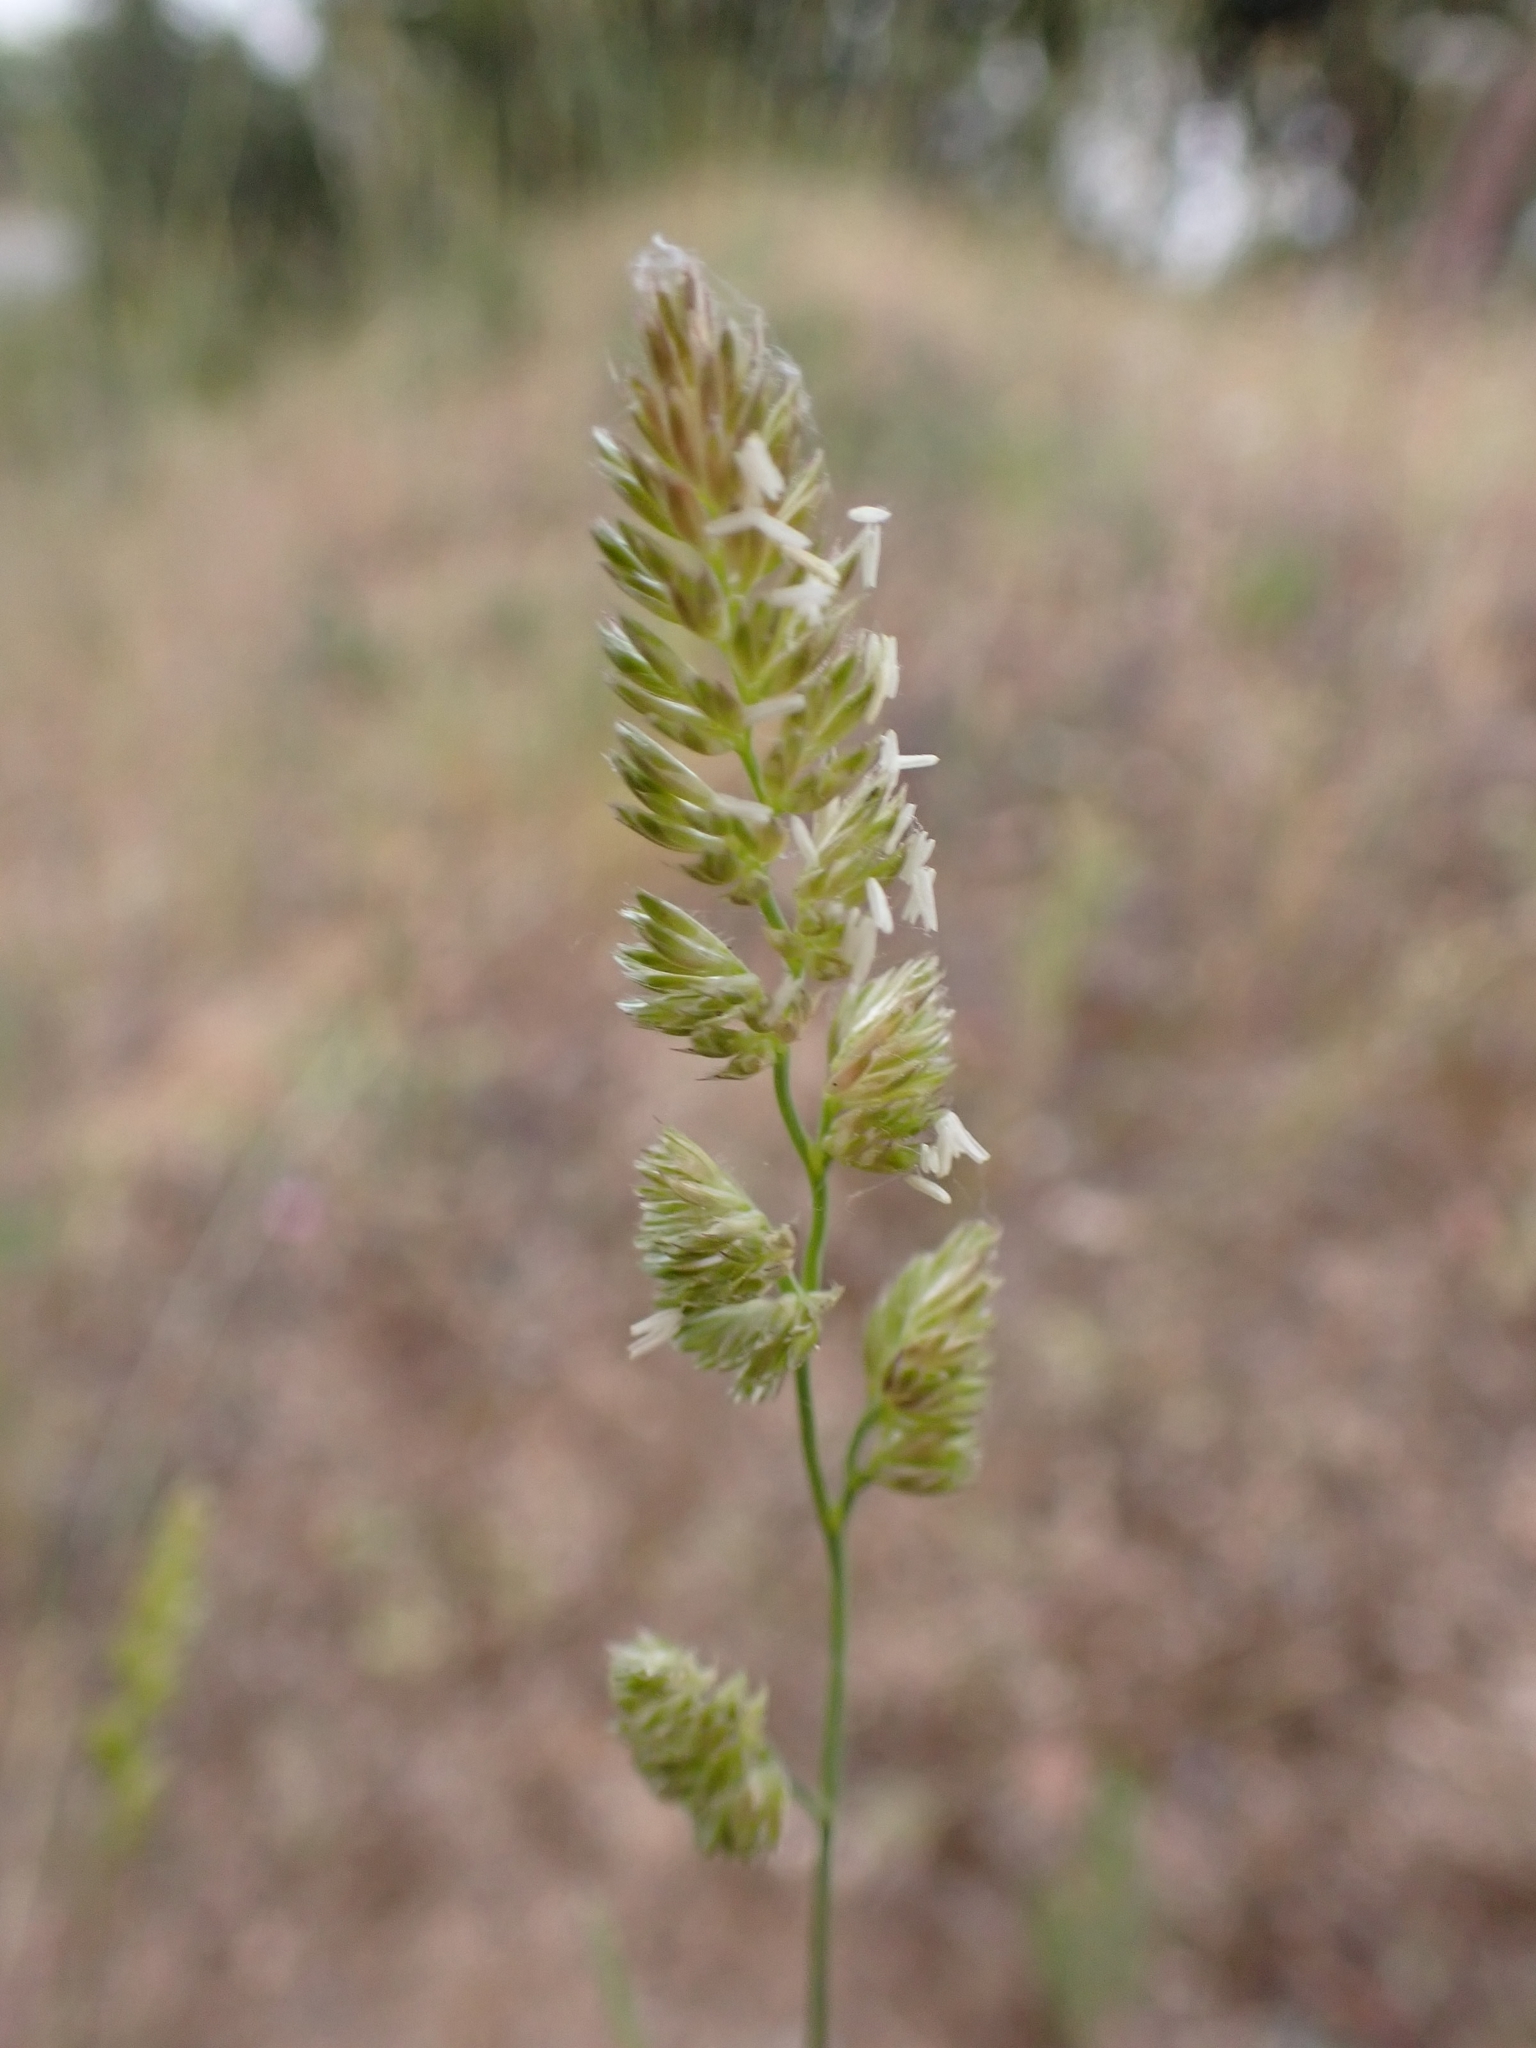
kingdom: Plantae
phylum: Tracheophyta
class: Liliopsida
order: Poales
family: Poaceae
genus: Dactylis
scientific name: Dactylis glomerata
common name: Orchardgrass
